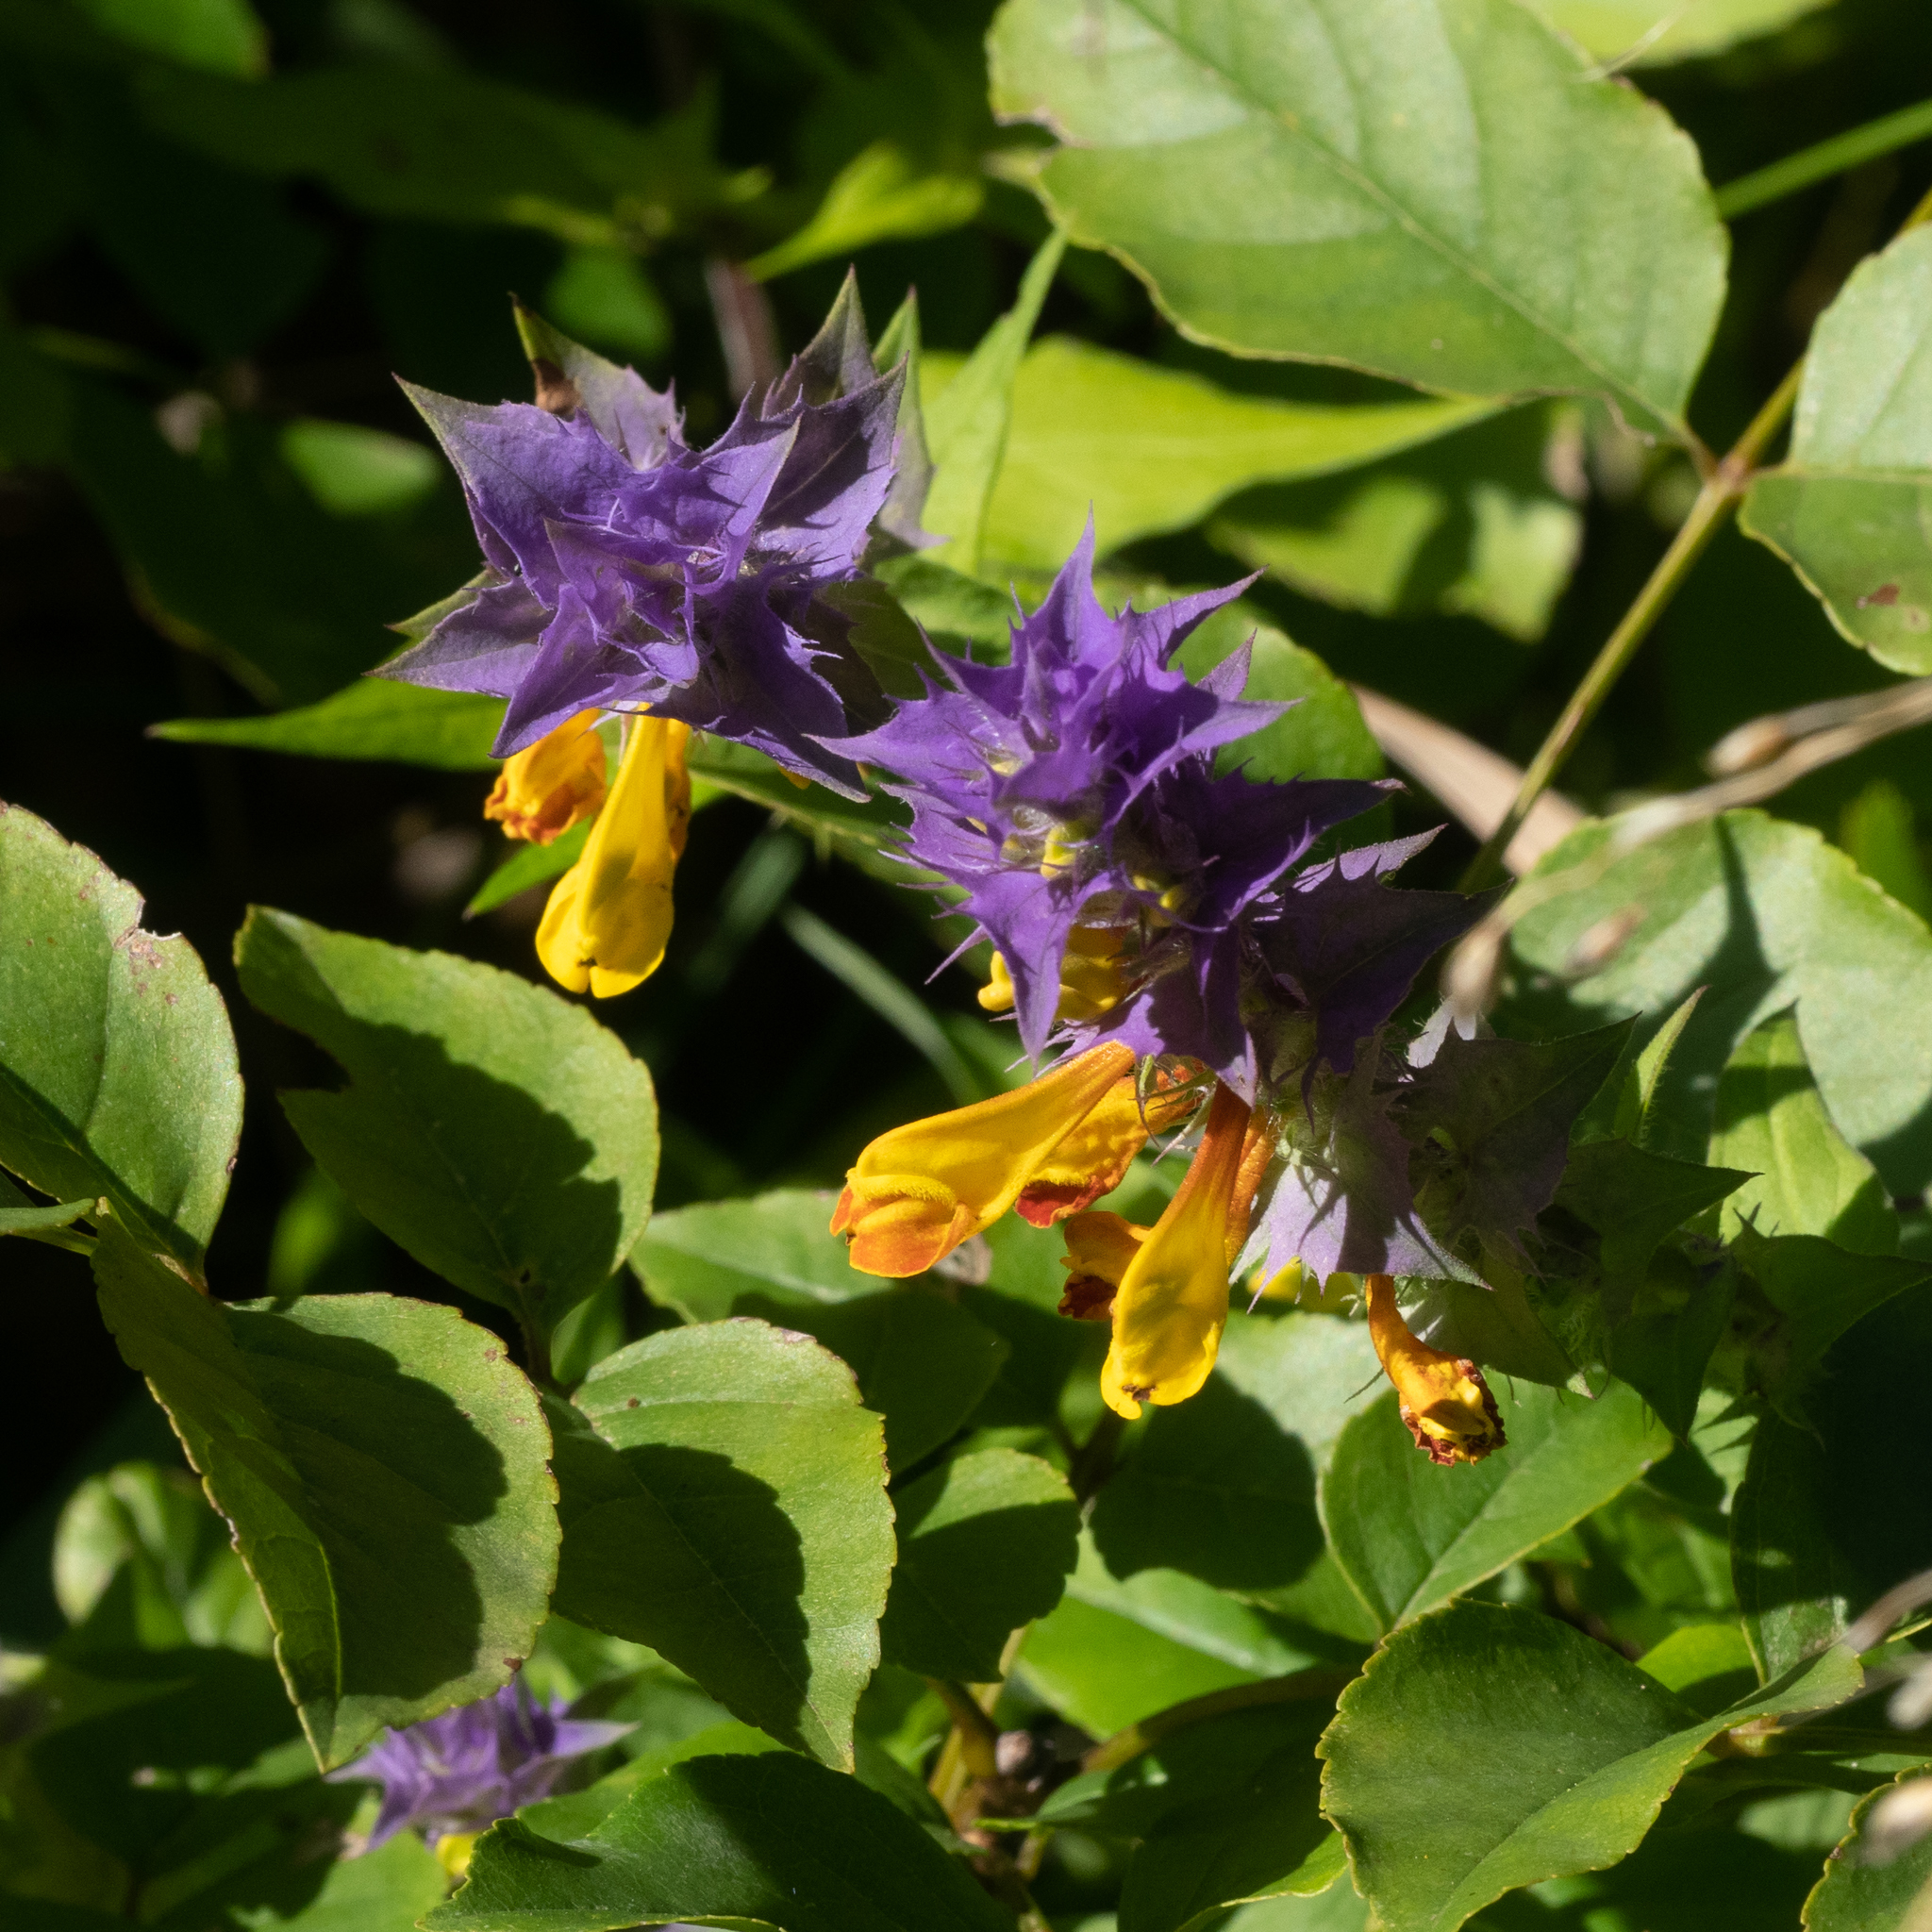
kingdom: Plantae
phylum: Tracheophyta
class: Magnoliopsida
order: Lamiales
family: Orobanchaceae
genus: Melampyrum
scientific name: Melampyrum nemorosum
